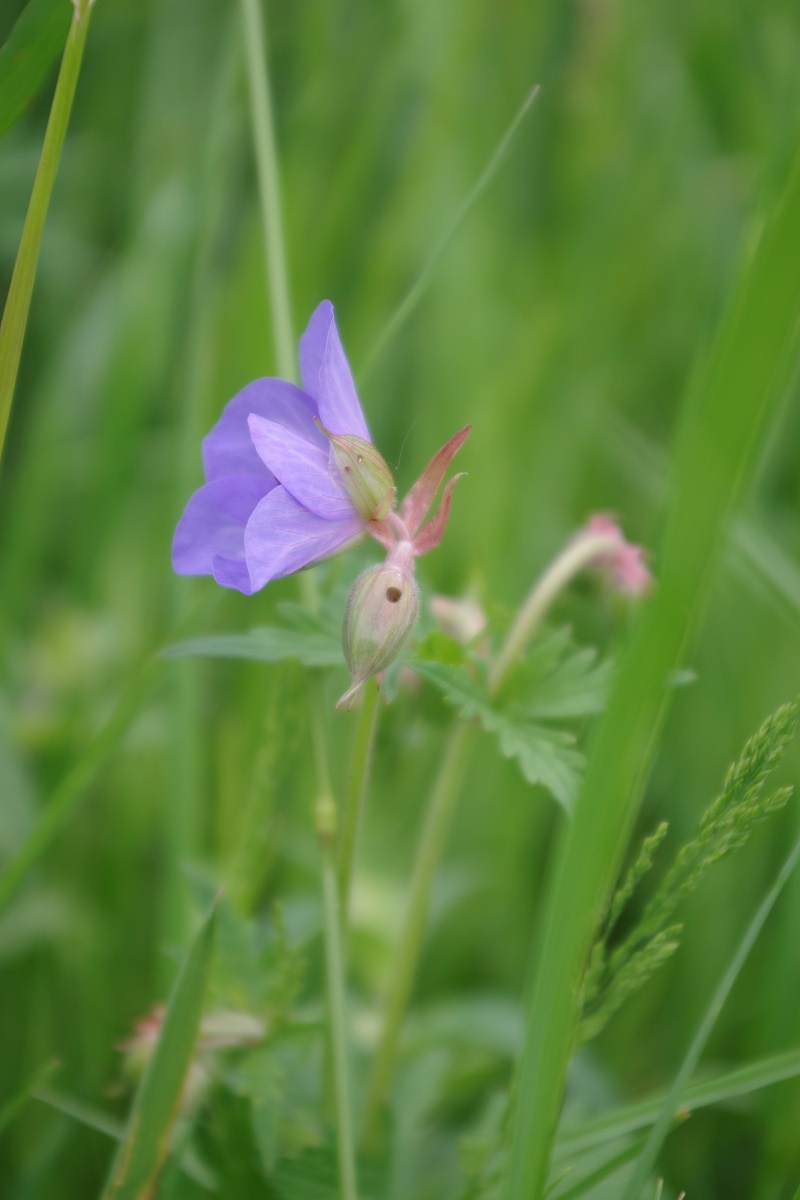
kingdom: Plantae
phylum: Tracheophyta
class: Magnoliopsida
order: Geraniales
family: Geraniaceae
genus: Geranium
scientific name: Geranium pratense
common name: Meadow crane's-bill
